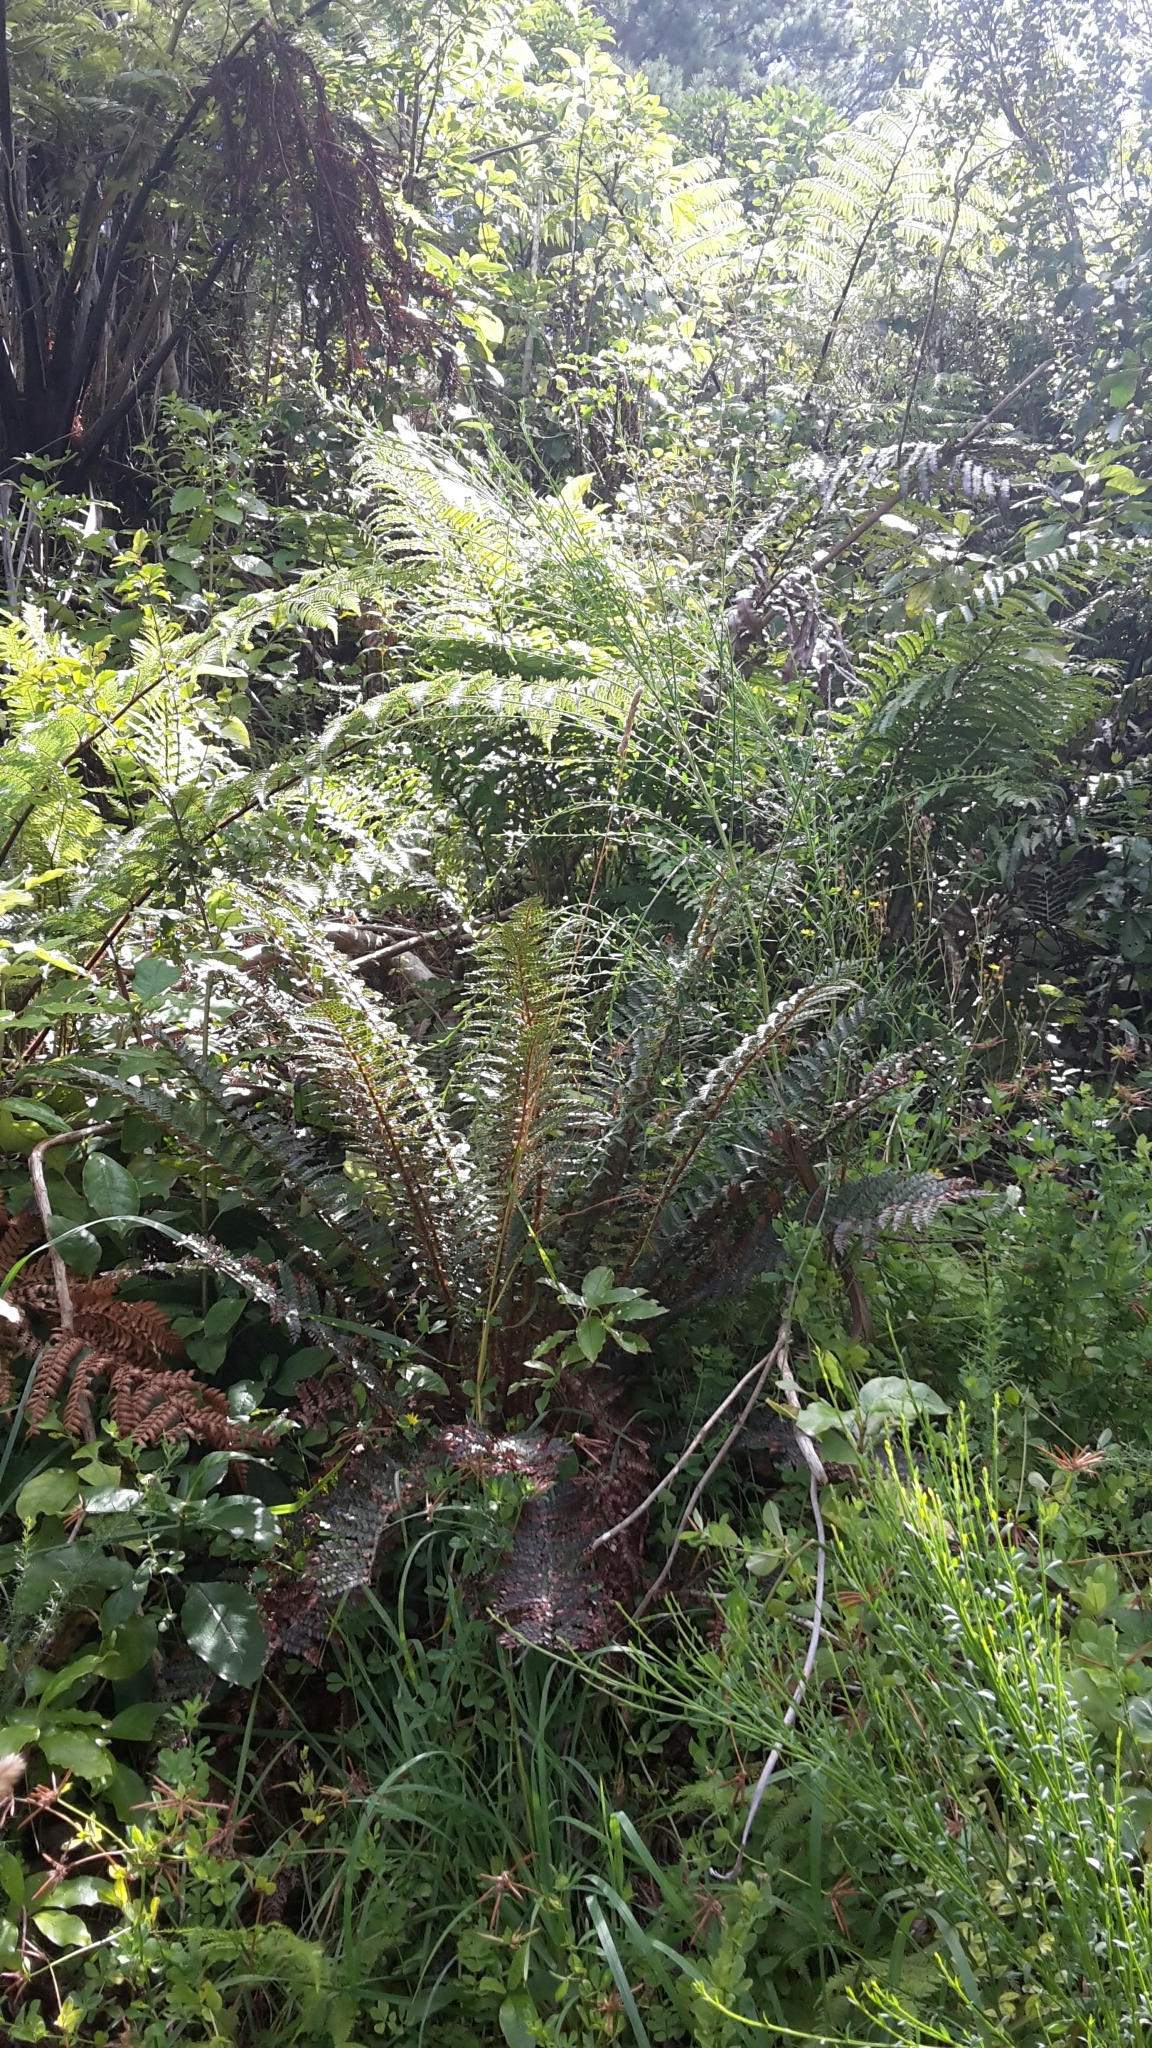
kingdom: Plantae
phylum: Tracheophyta
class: Polypodiopsida
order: Polypodiales
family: Dryopteridaceae
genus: Polystichum
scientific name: Polystichum vestitum
